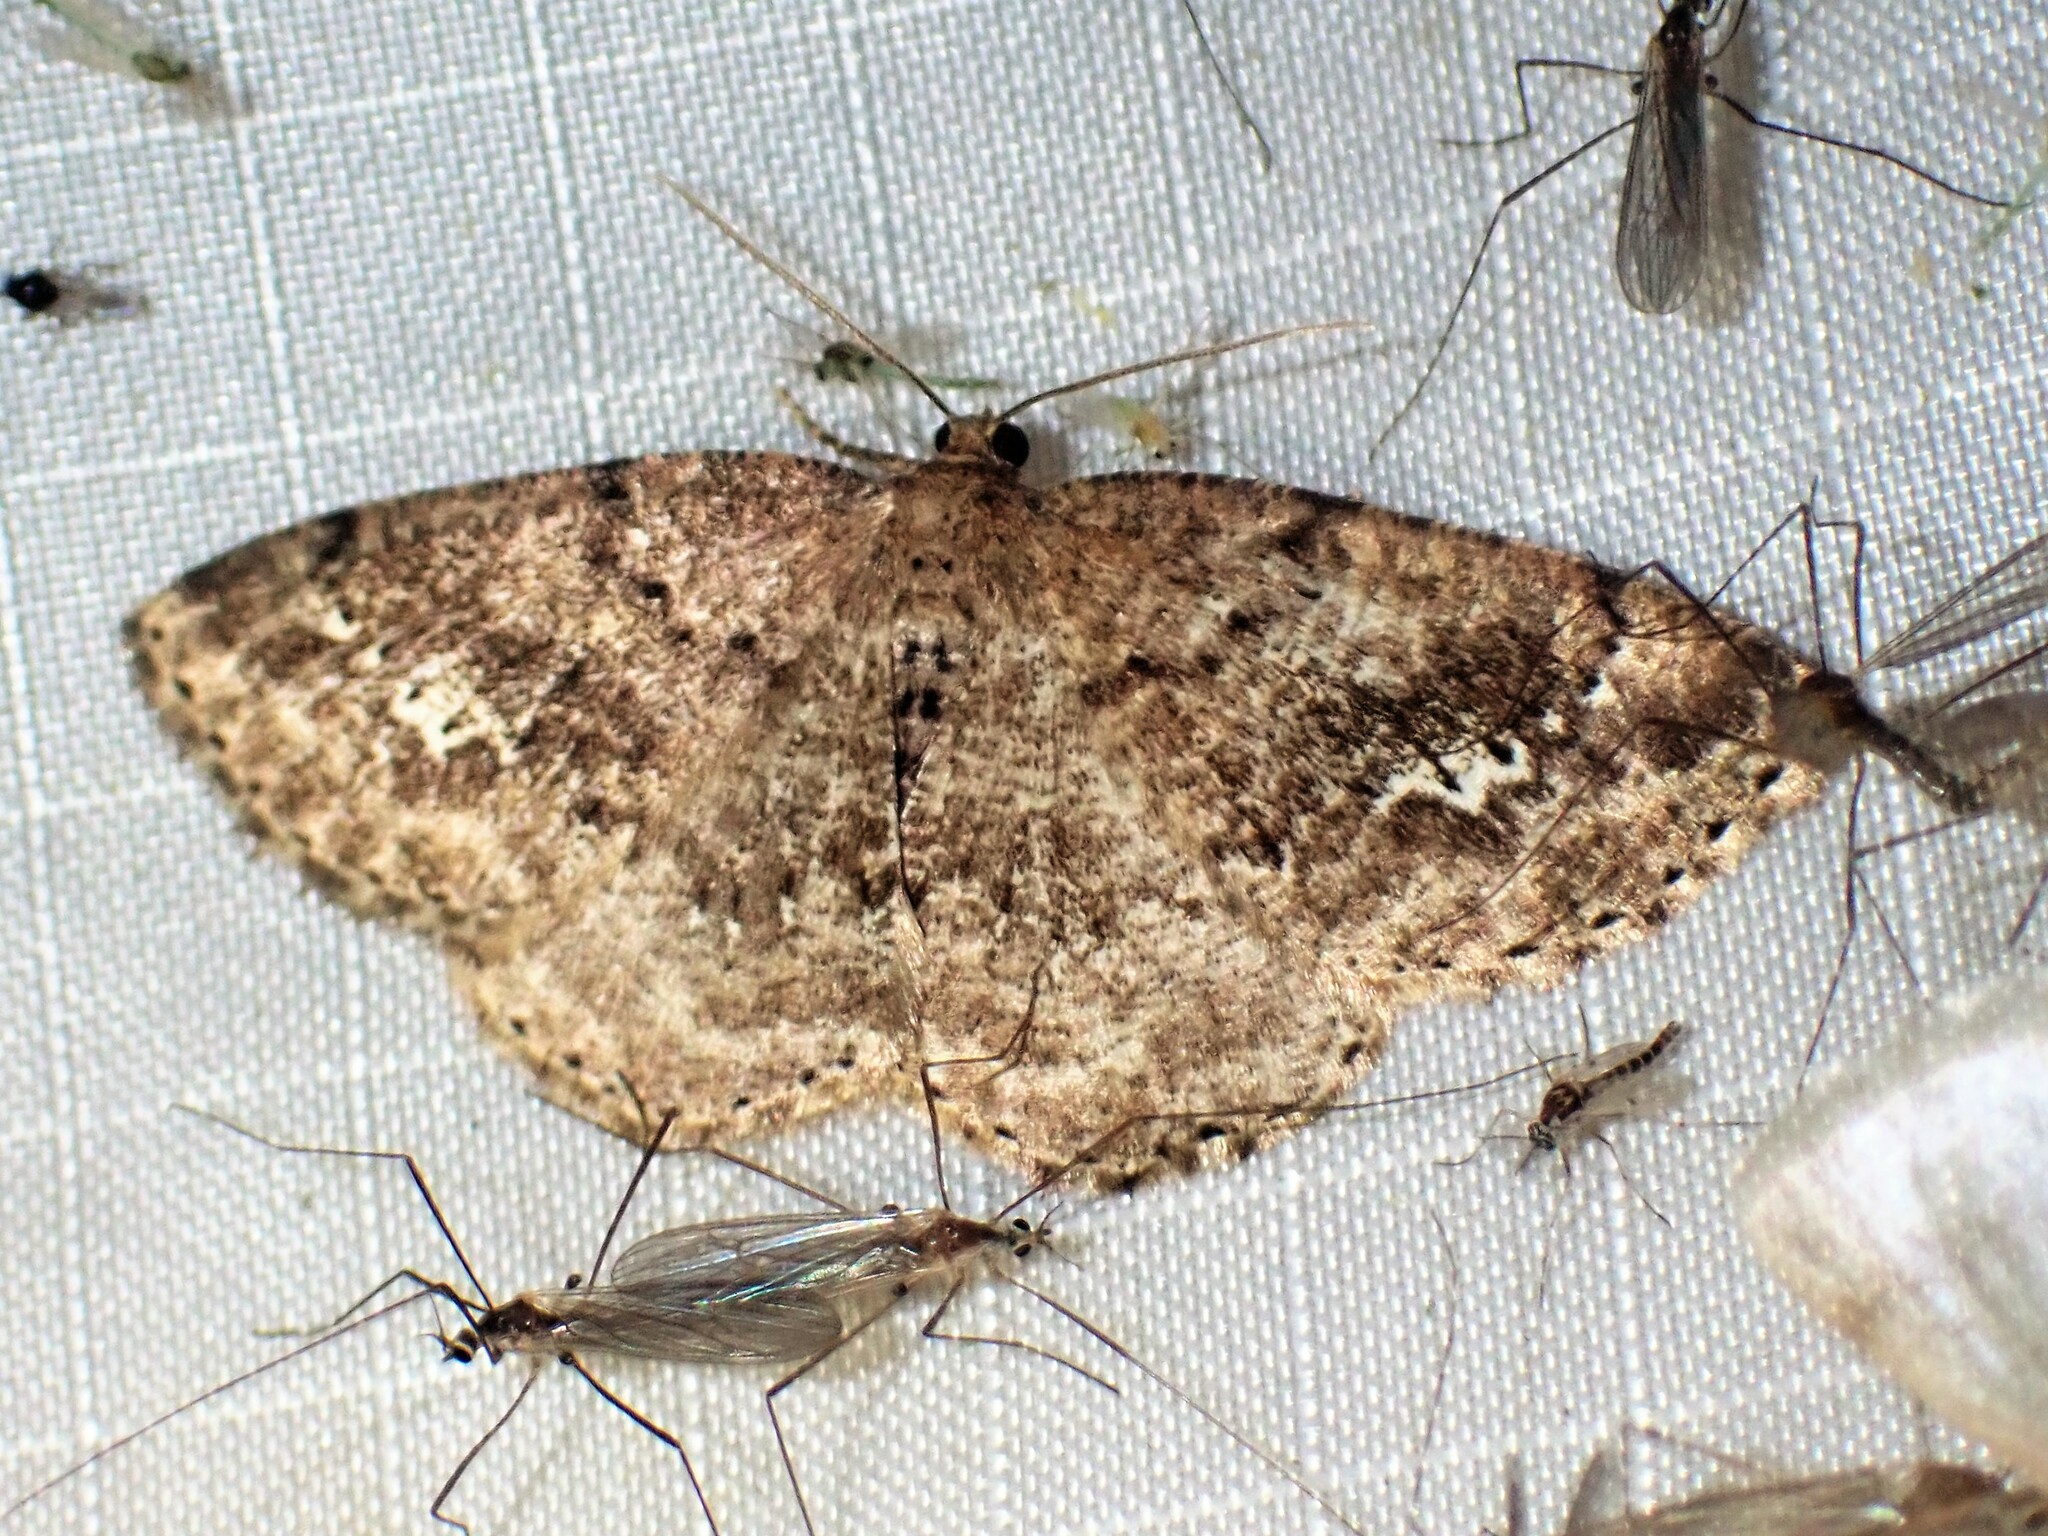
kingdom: Animalia
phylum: Arthropoda
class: Insecta
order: Lepidoptera
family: Geometridae
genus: Homochlodes
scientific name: Homochlodes fritillaria
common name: Pale homochlodes
